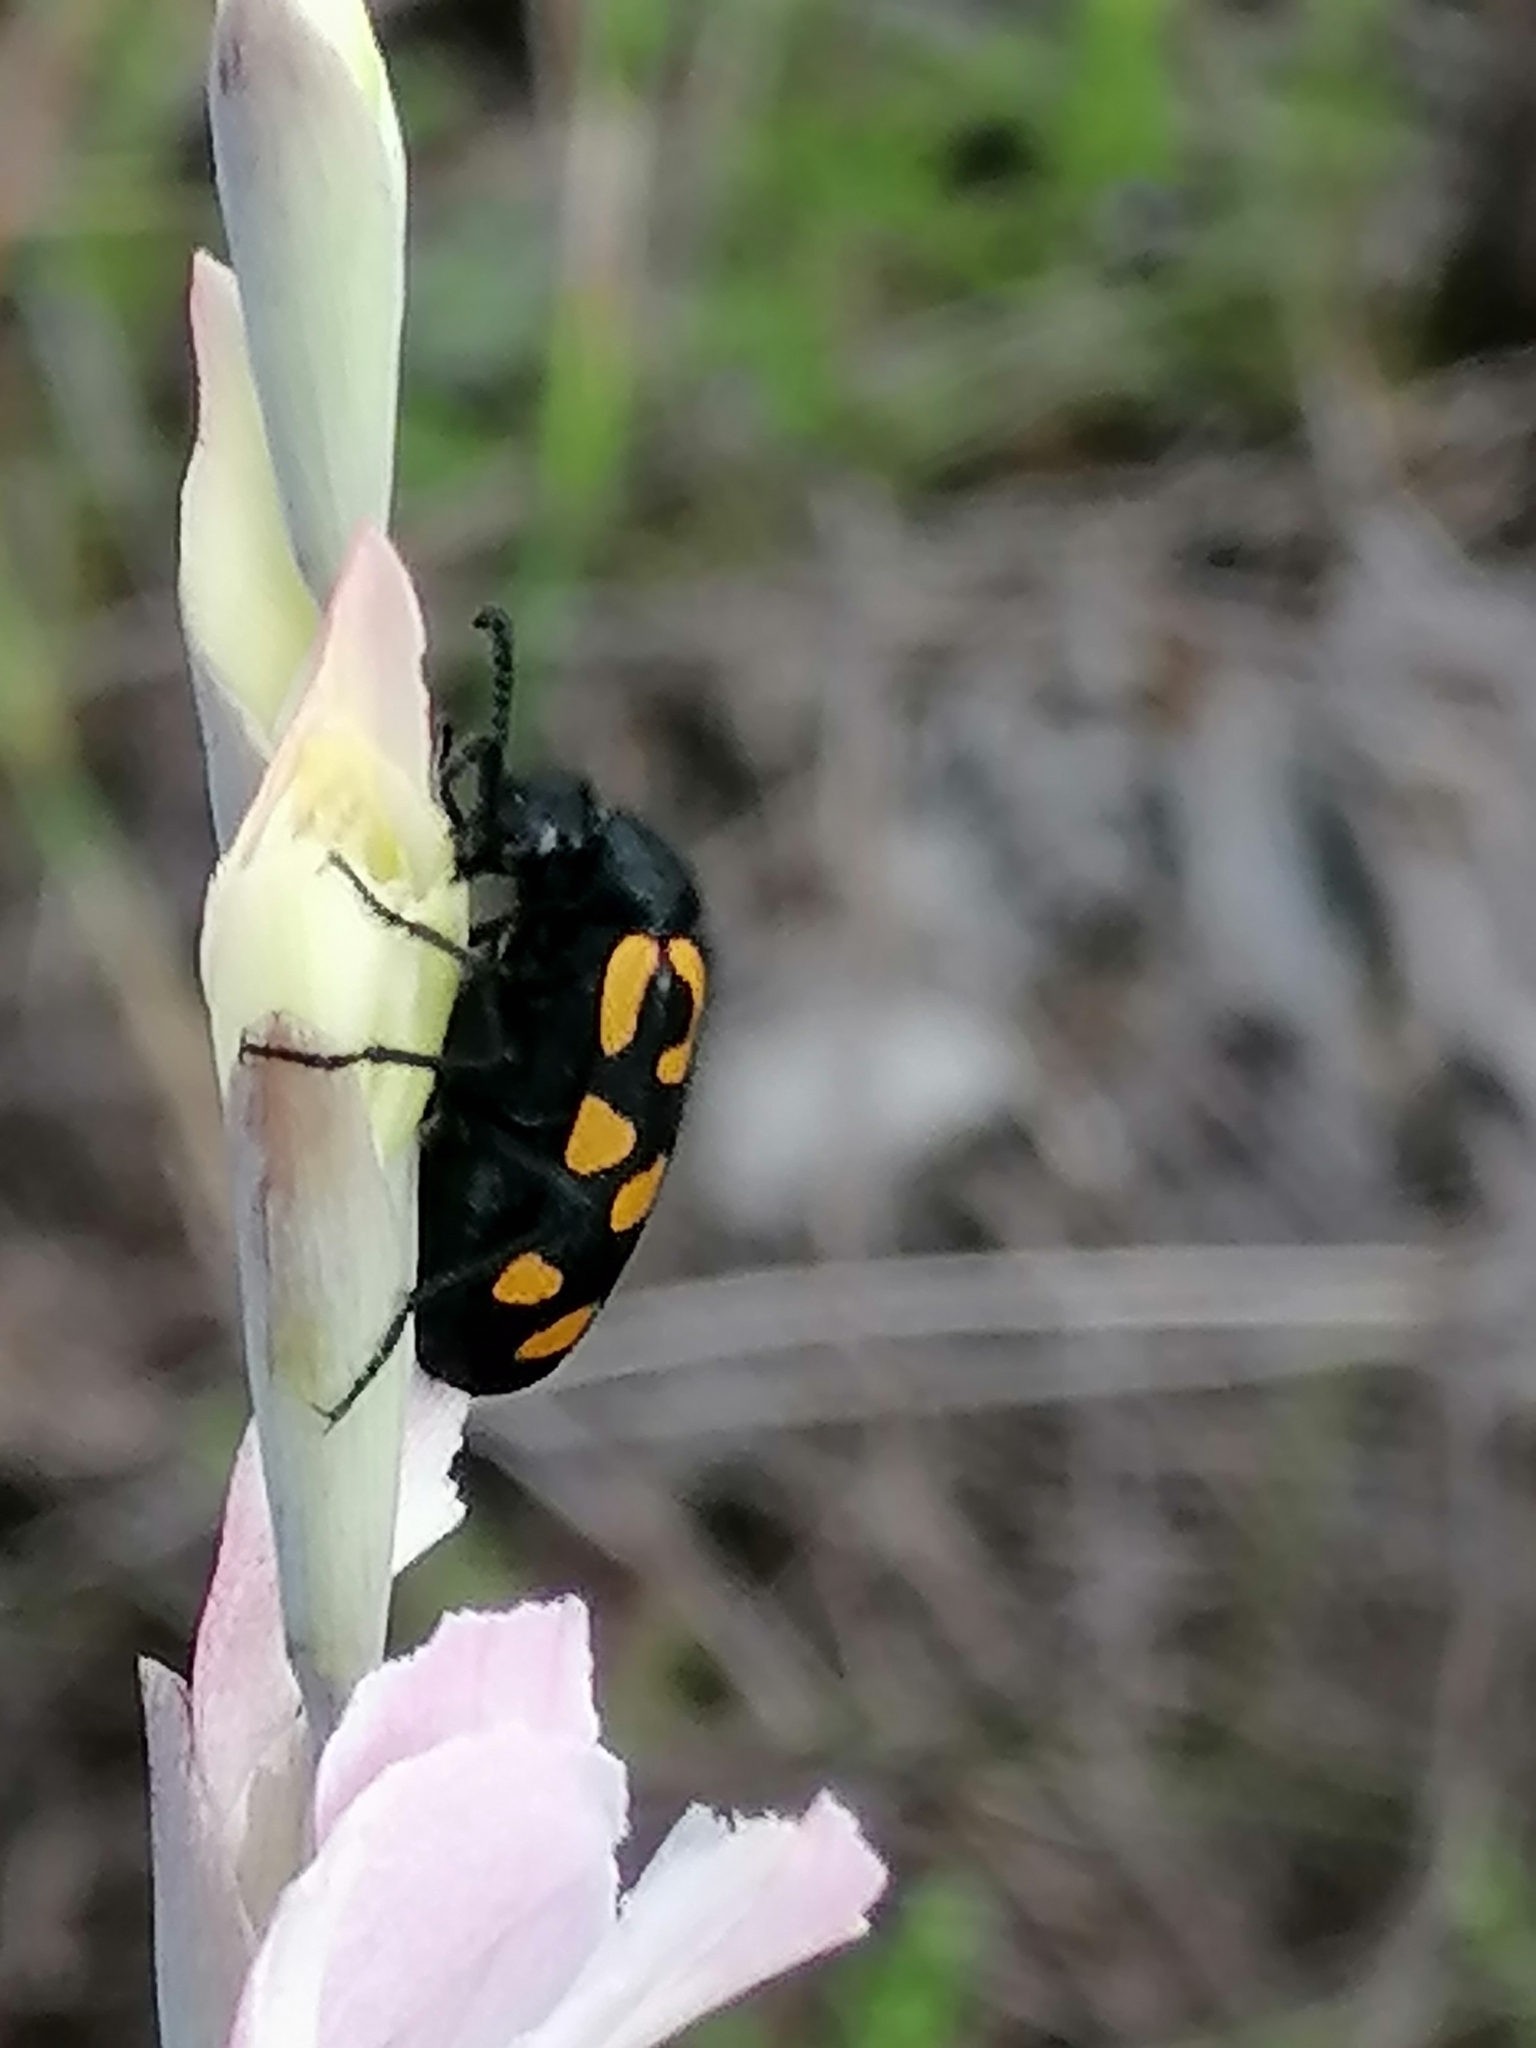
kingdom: Animalia
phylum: Arthropoda
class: Insecta
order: Coleoptera
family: Meloidae
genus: Ceroctis
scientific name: Ceroctis capensis
